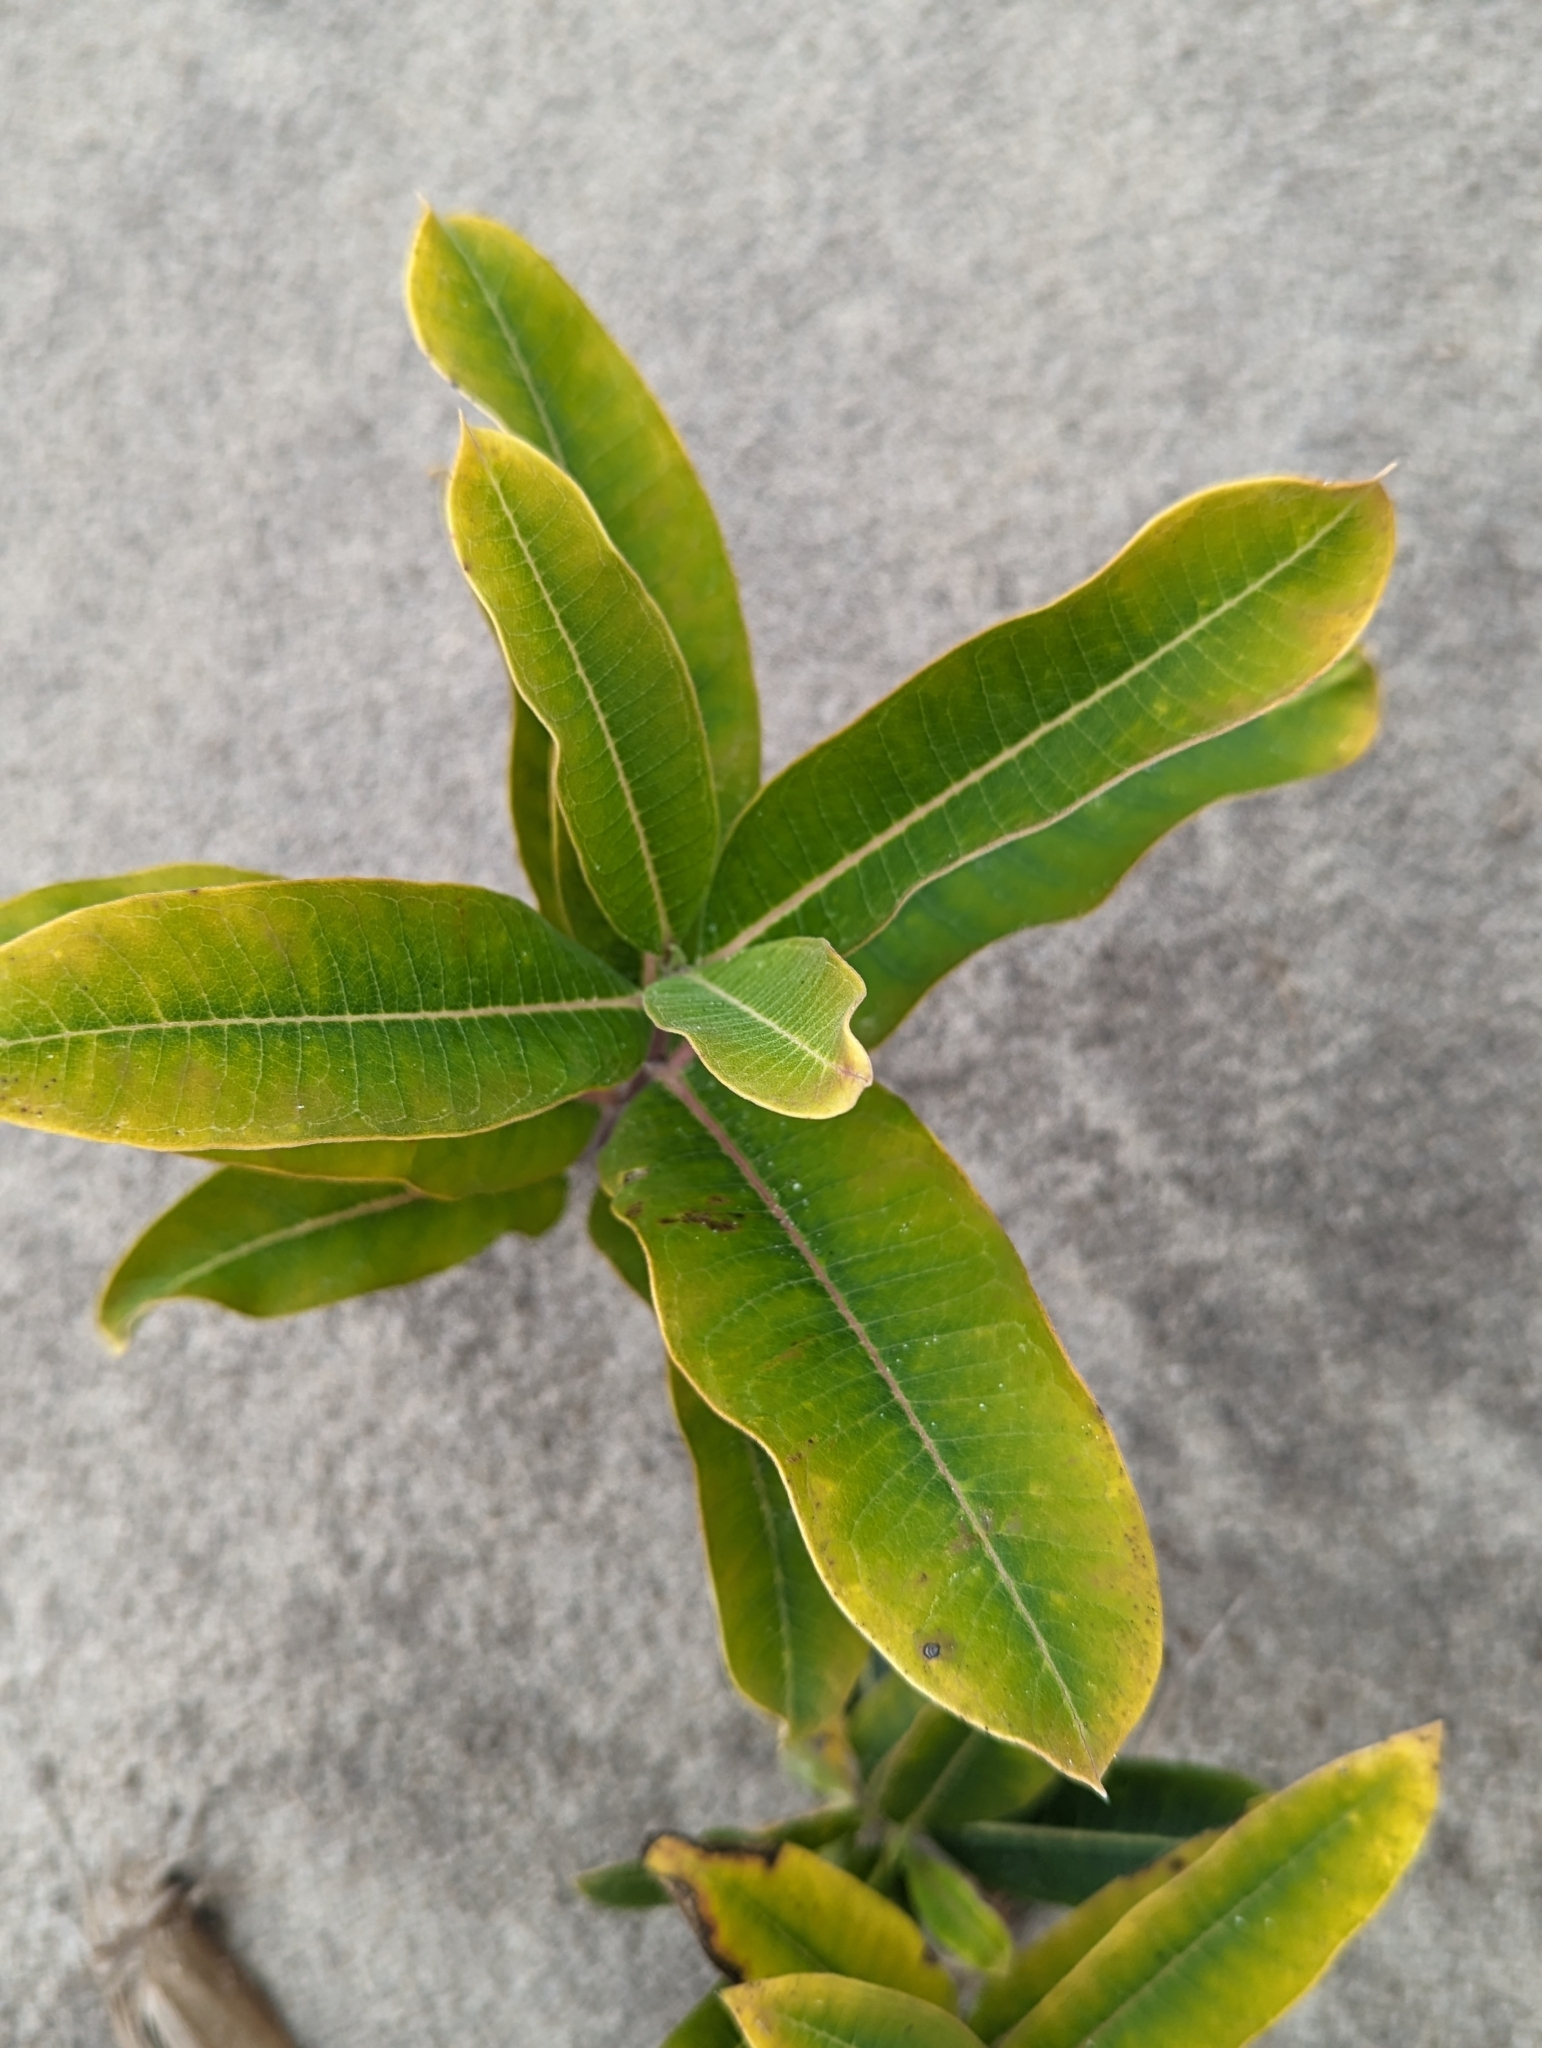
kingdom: Plantae
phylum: Tracheophyta
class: Magnoliopsida
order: Gentianales
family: Apocynaceae
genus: Asclepias
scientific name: Asclepias syriaca
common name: Common milkweed
